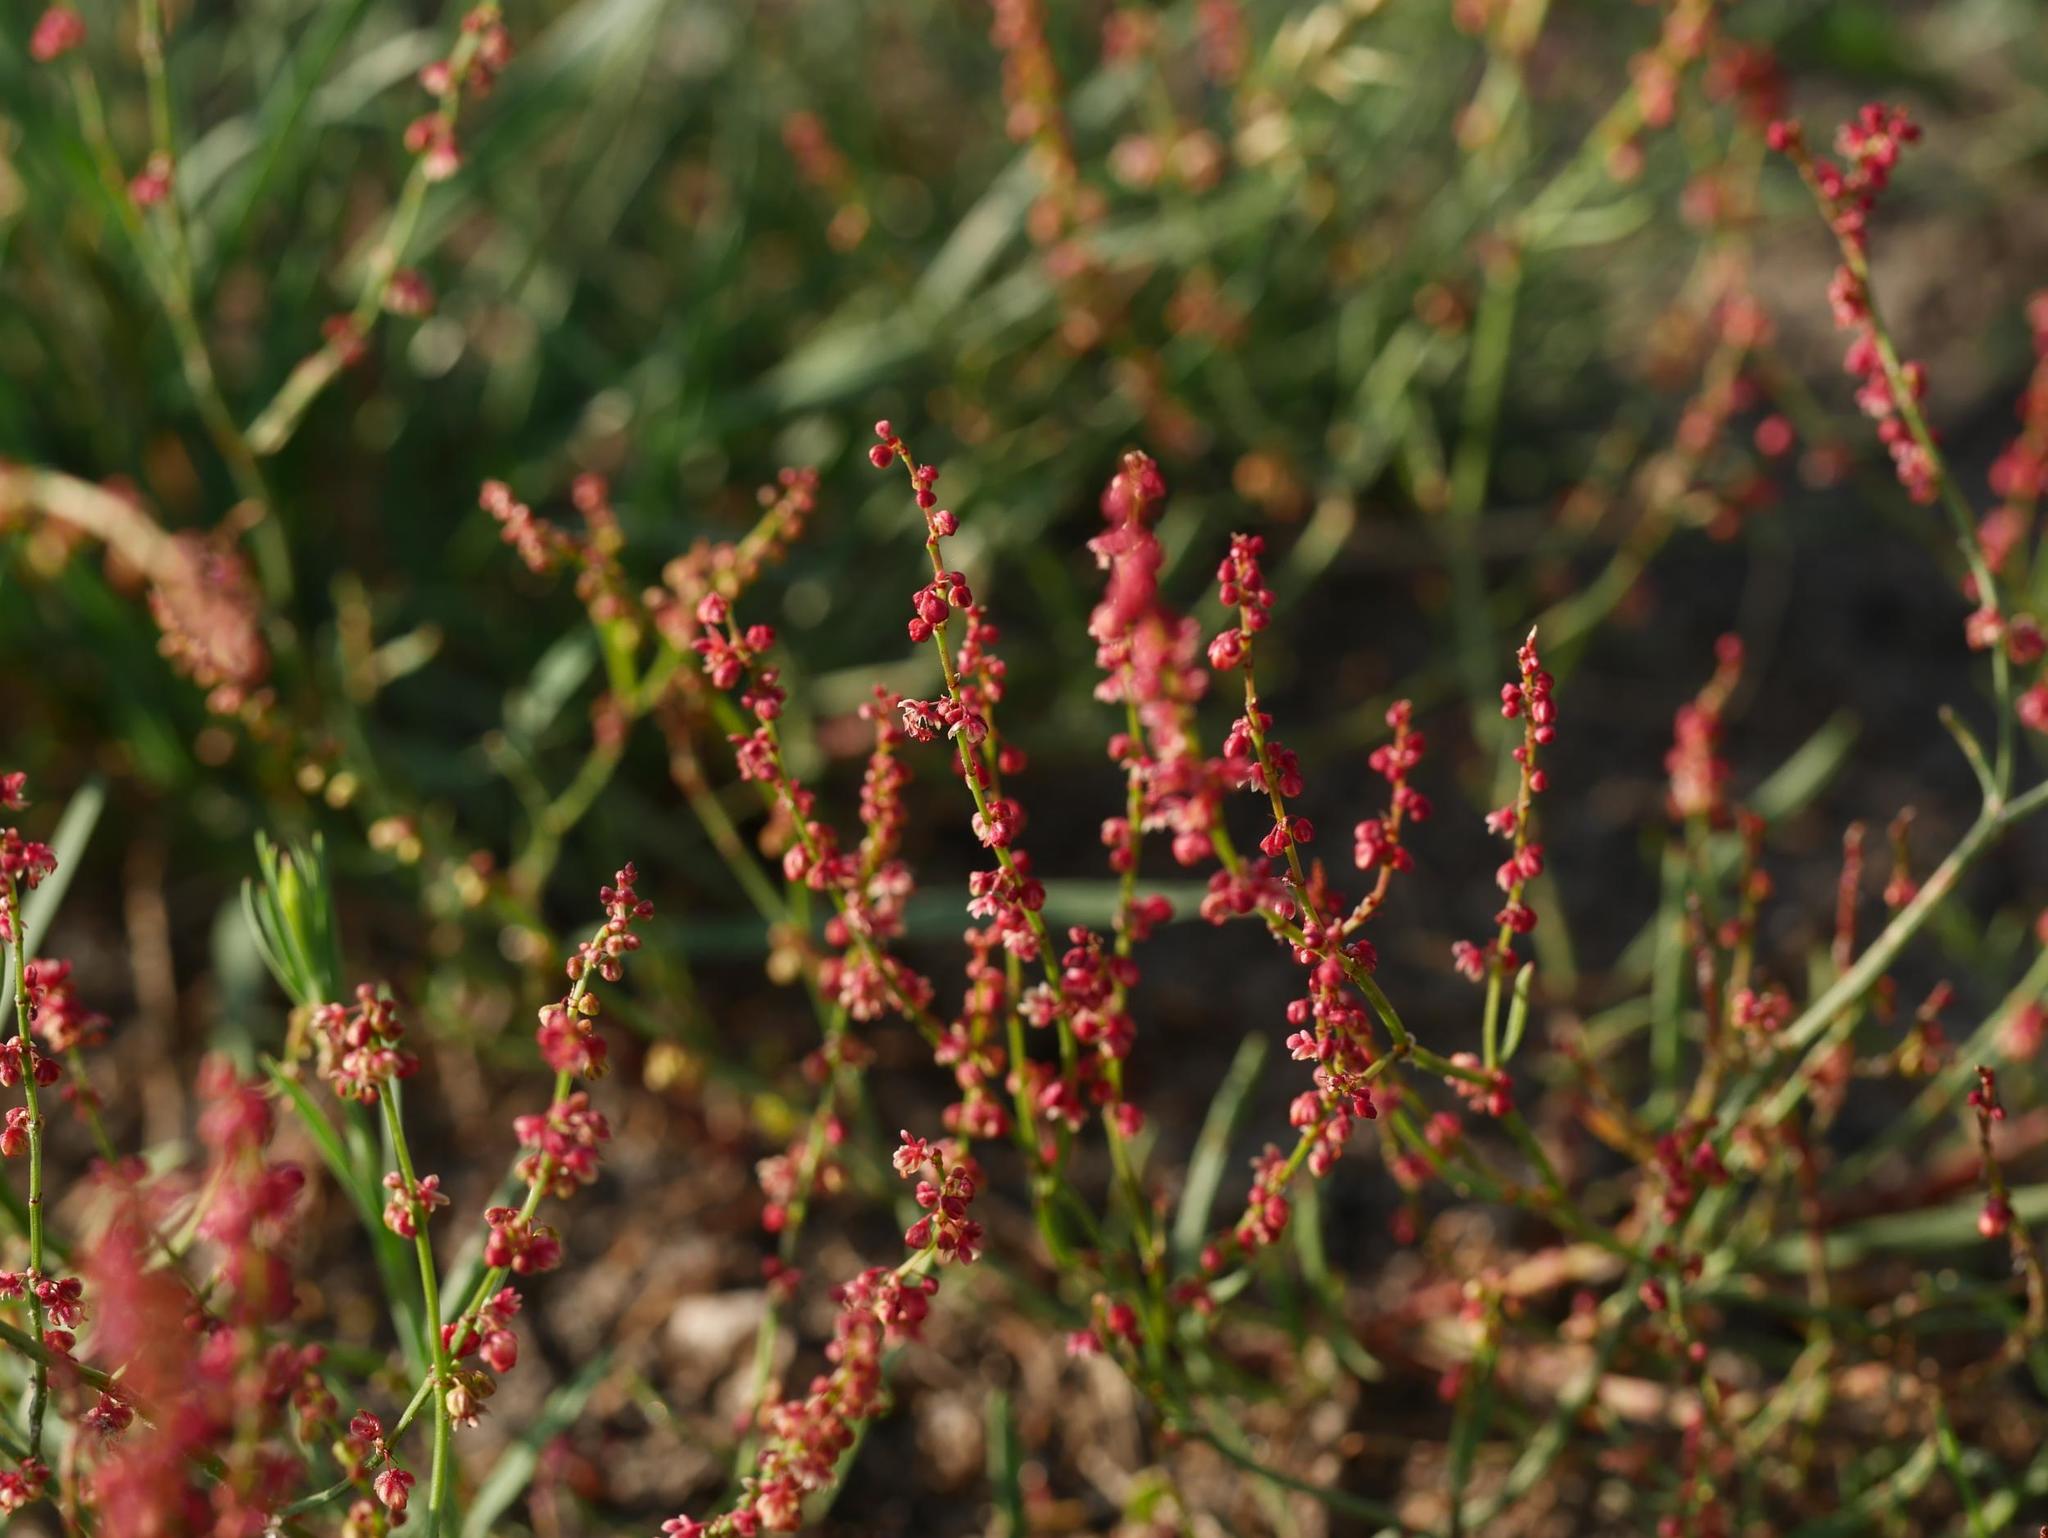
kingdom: Plantae
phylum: Tracheophyta
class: Magnoliopsida
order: Caryophyllales
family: Polygonaceae
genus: Rumex
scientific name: Rumex acetosella
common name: Common sheep sorrel
